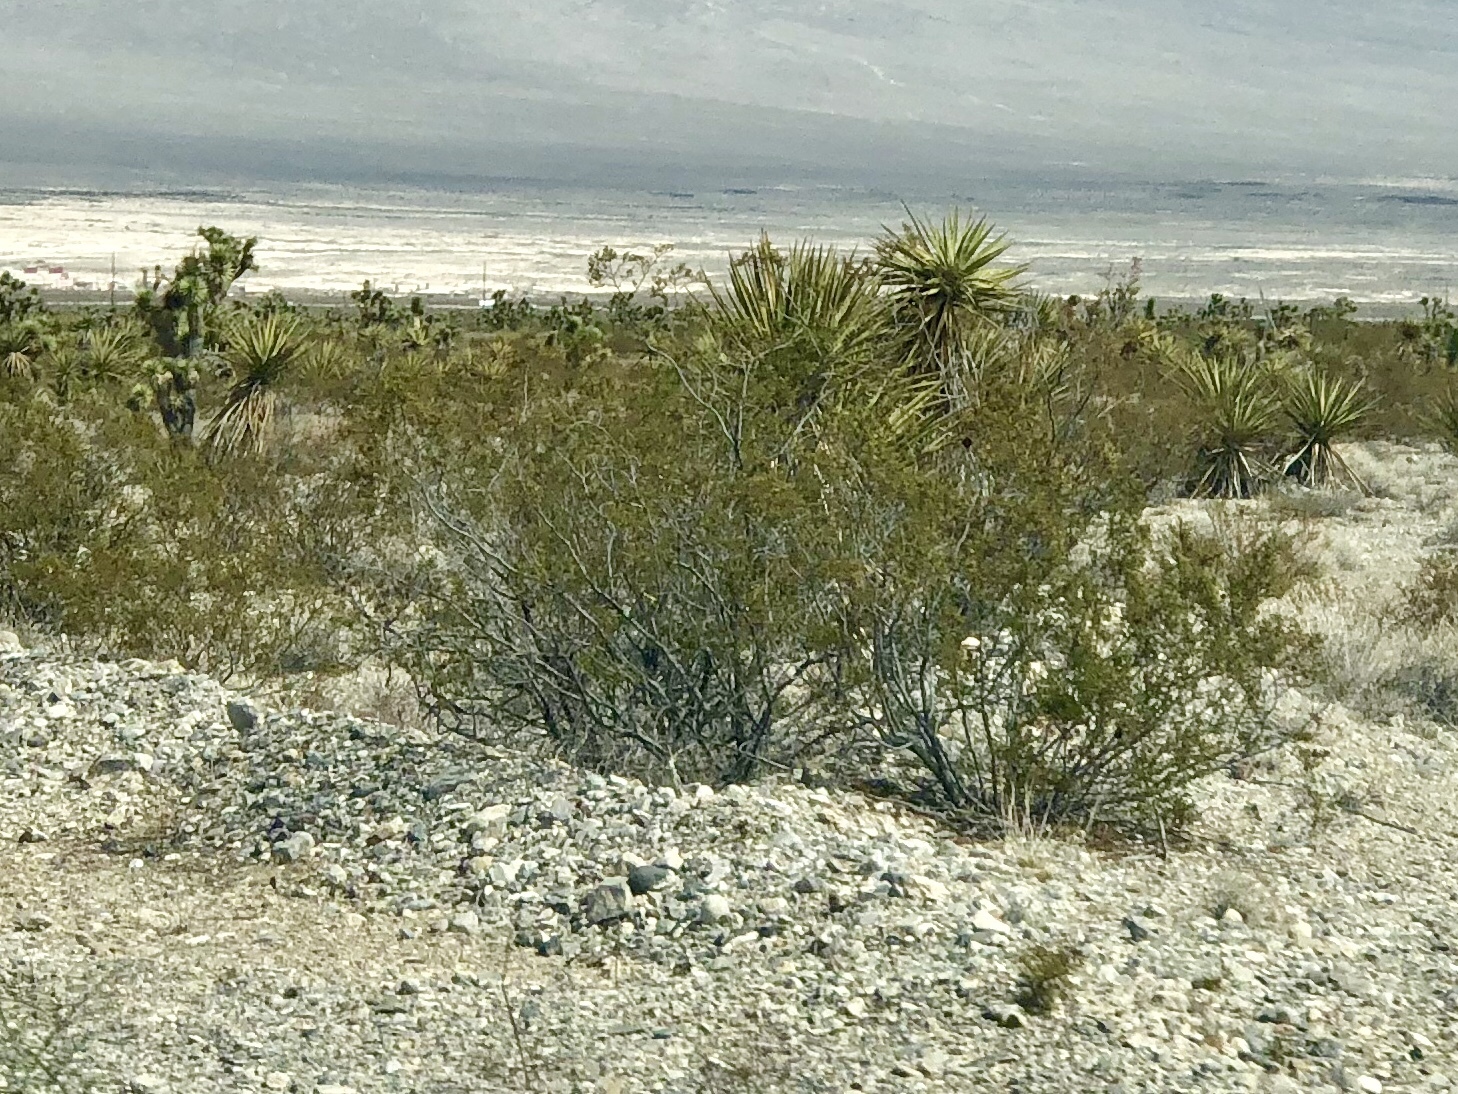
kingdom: Plantae
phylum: Tracheophyta
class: Magnoliopsida
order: Zygophyllales
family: Zygophyllaceae
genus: Larrea
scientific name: Larrea tridentata
